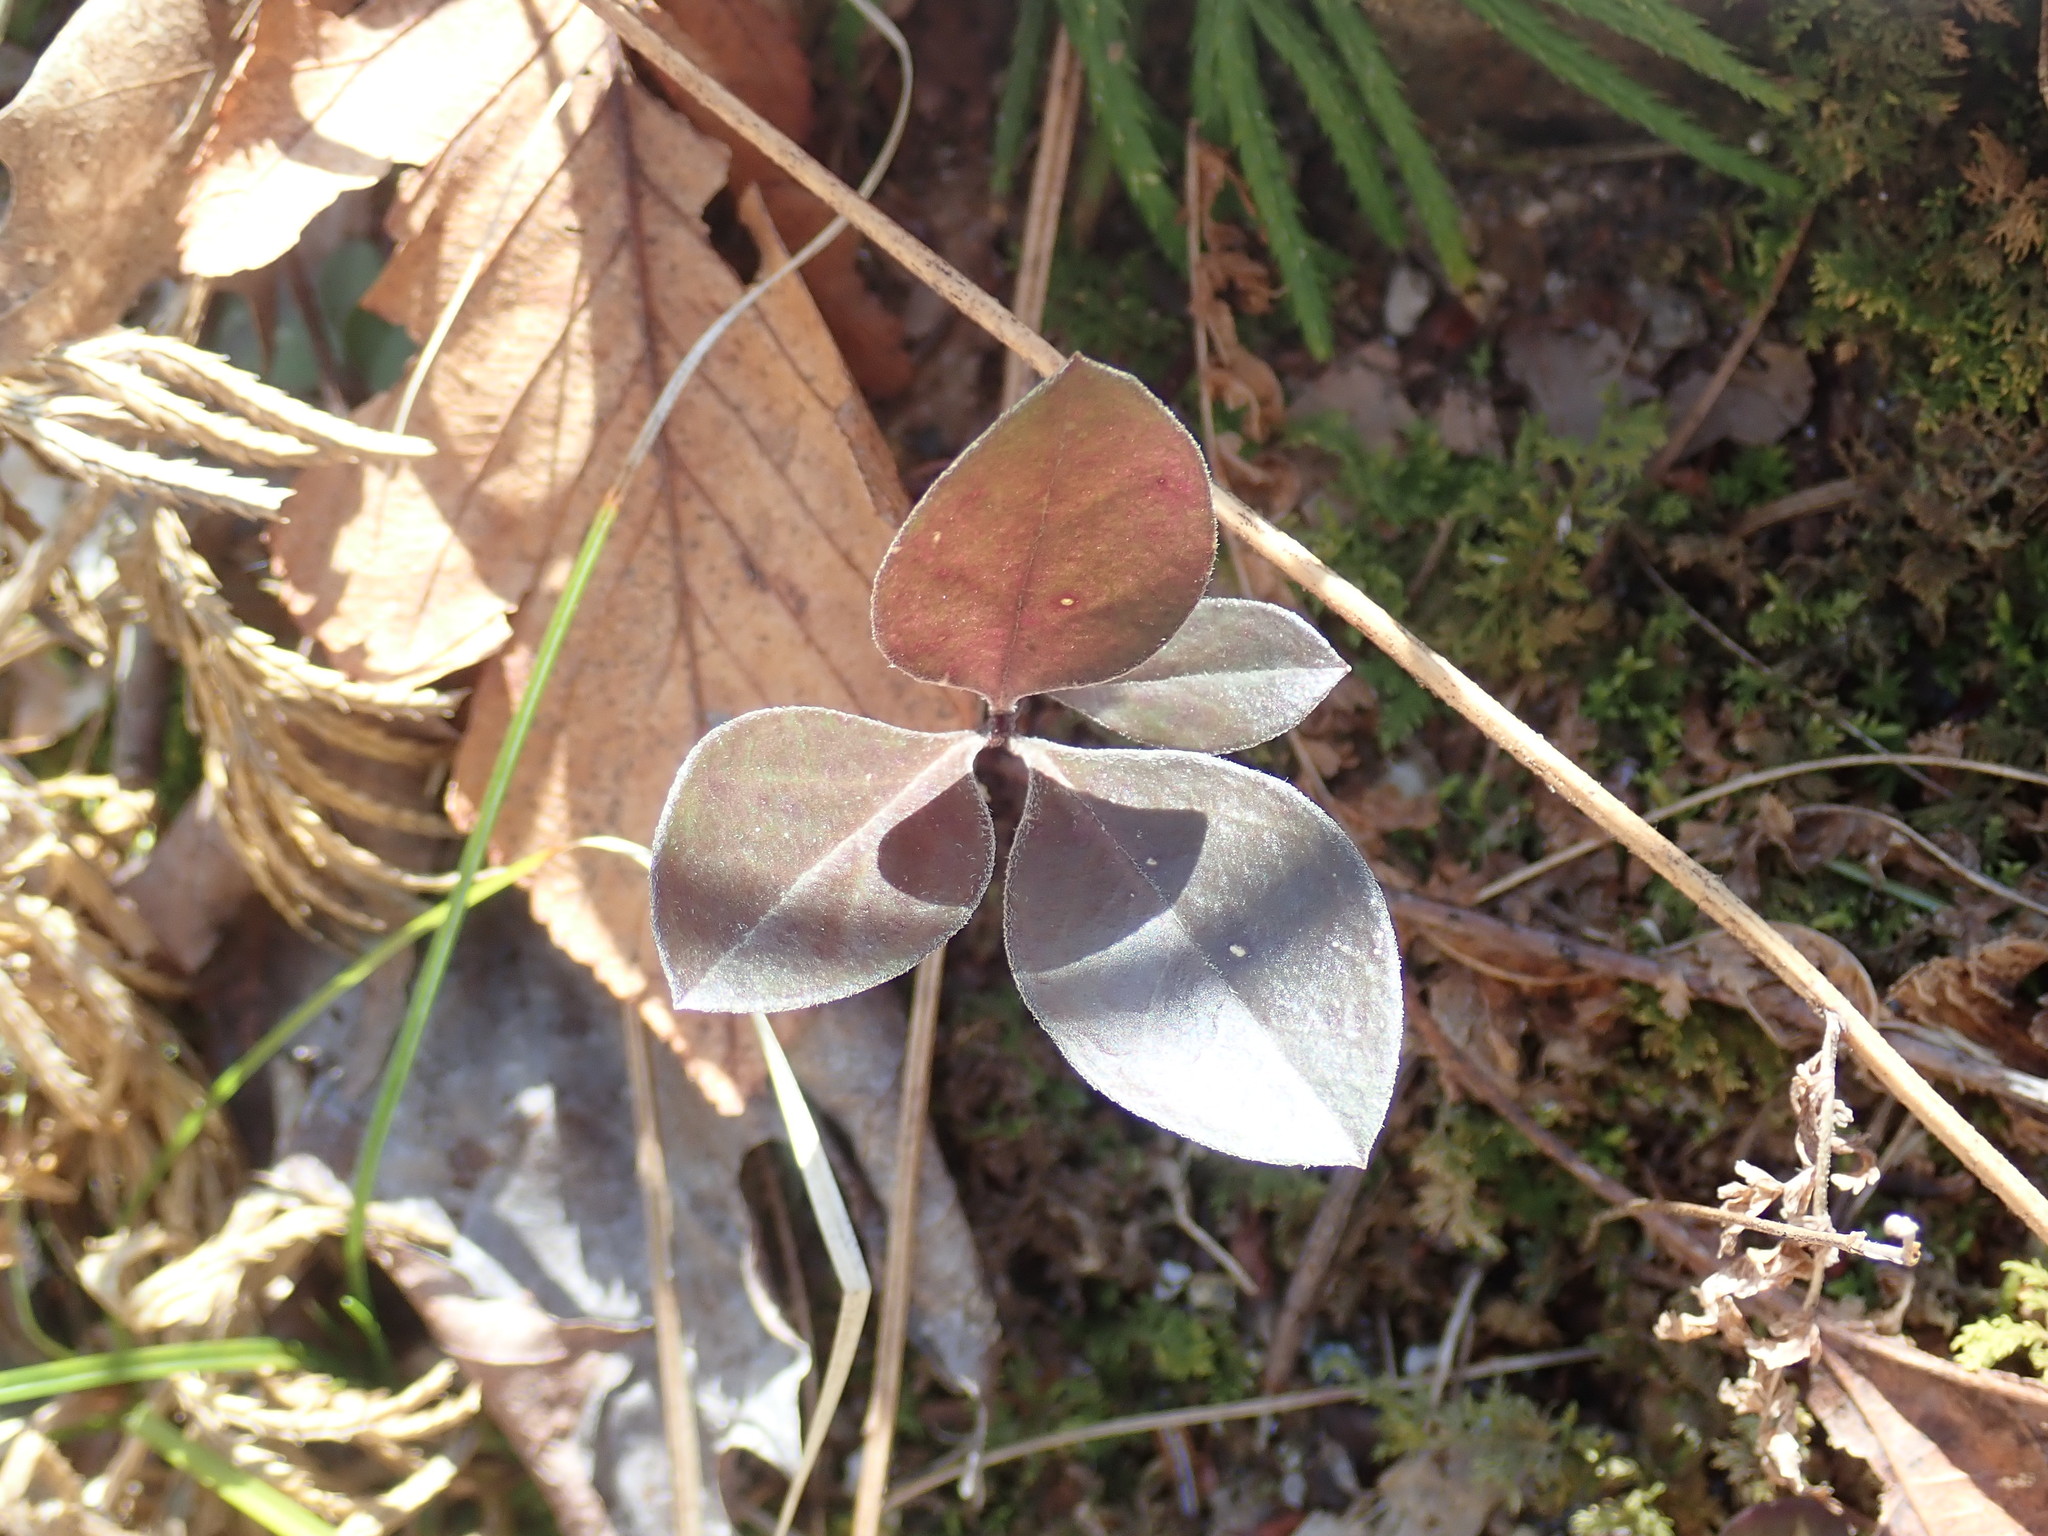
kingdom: Plantae
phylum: Tracheophyta
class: Magnoliopsida
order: Fabales
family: Polygalaceae
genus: Polygaloides
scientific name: Polygaloides paucifolia
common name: Bird-on-the-wing
